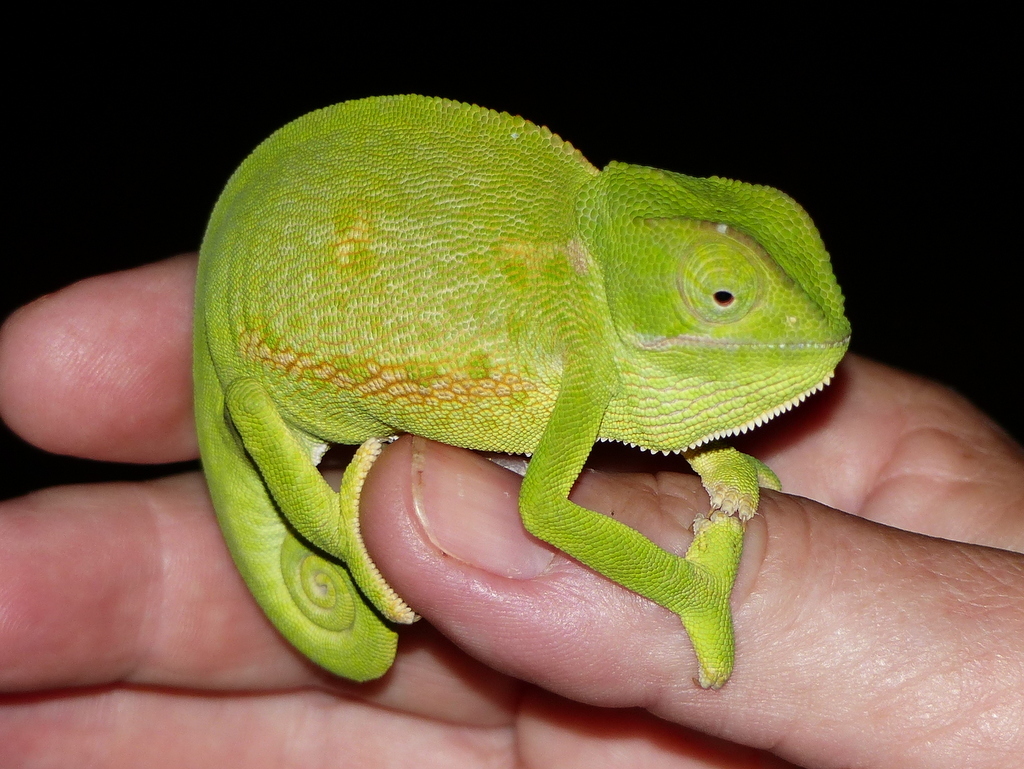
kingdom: Animalia
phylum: Chordata
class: Squamata
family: Chamaeleonidae
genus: Chamaeleo
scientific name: Chamaeleo dilepis
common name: Flapneck chameleon
